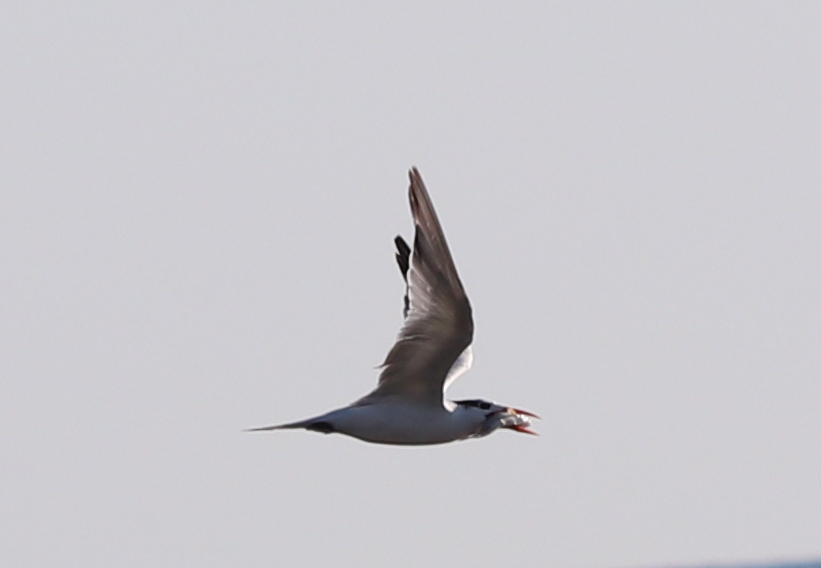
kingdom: Animalia
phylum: Chordata
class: Aves
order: Charadriiformes
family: Laridae
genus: Thalasseus
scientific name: Thalasseus maximus
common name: Royal tern
